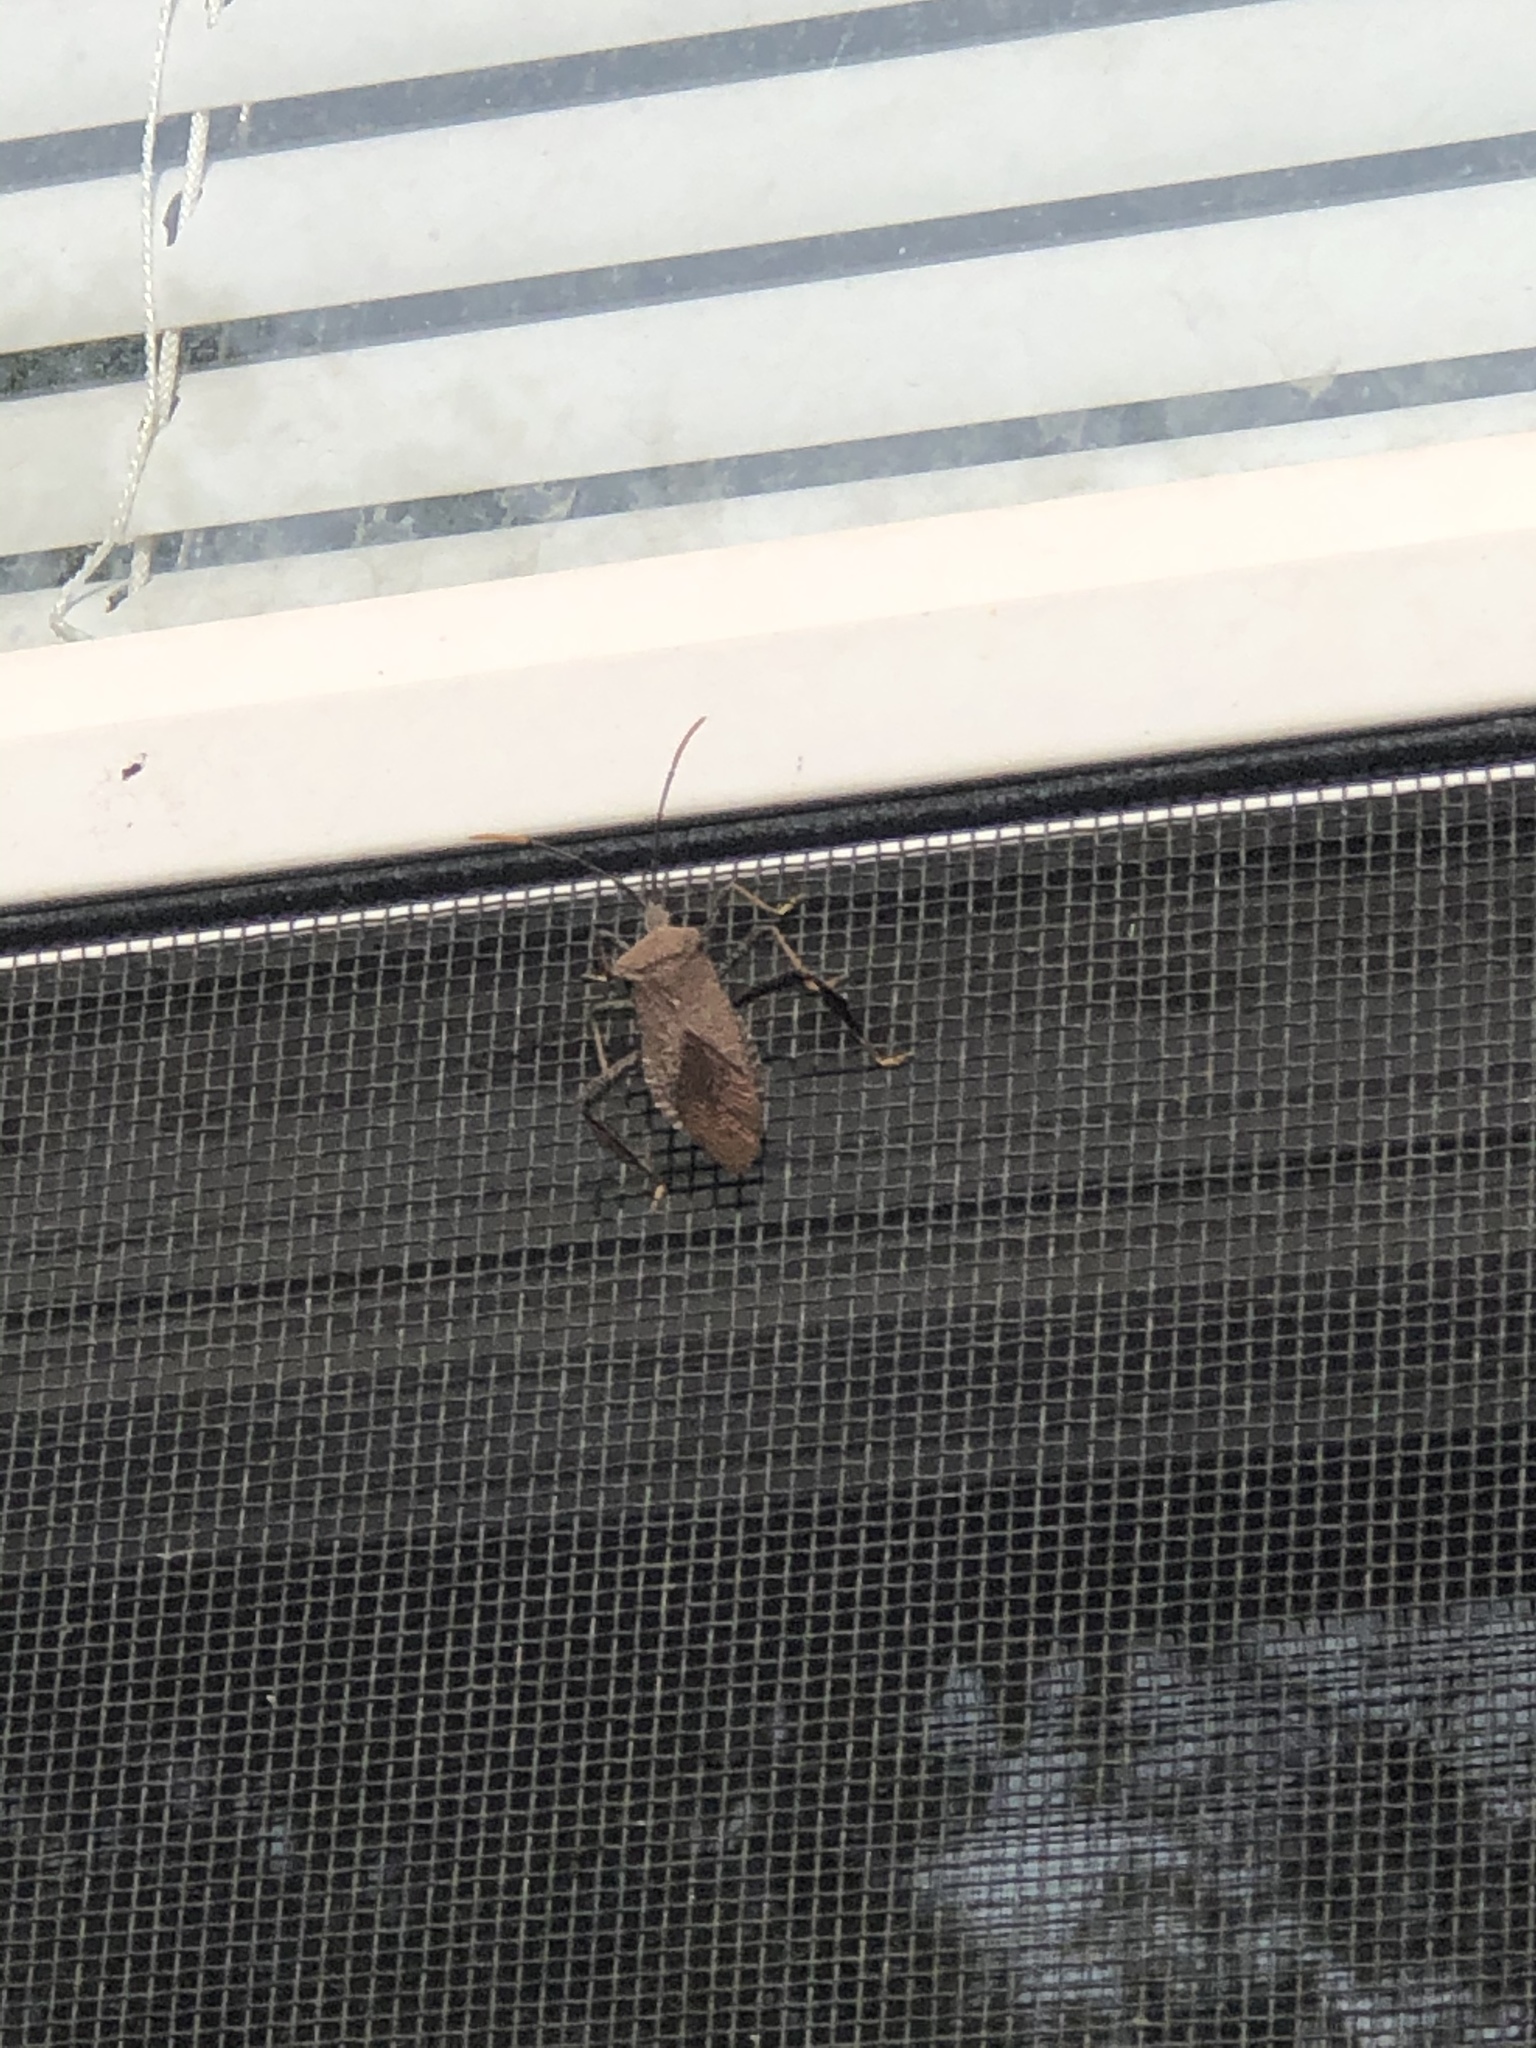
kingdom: Animalia
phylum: Arthropoda
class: Insecta
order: Hemiptera
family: Coreidae
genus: Acanthocephala
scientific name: Acanthocephala terminalis
